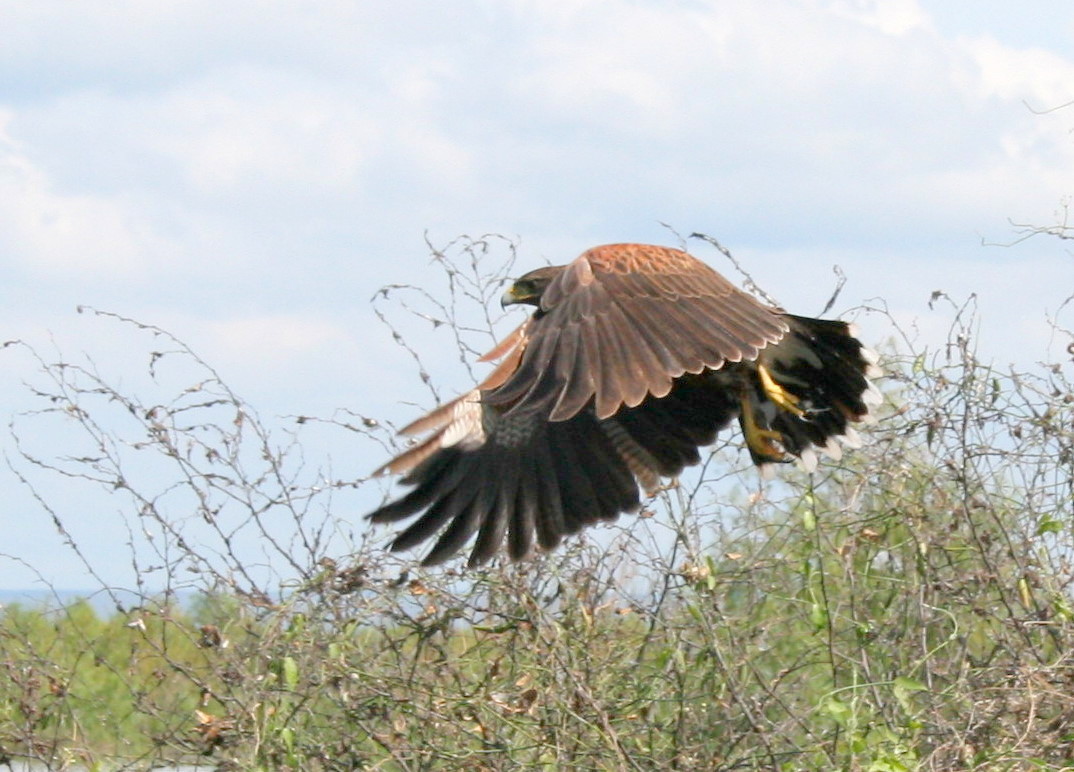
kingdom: Animalia
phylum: Chordata
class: Aves
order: Accipitriformes
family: Accipitridae
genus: Parabuteo
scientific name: Parabuteo unicinctus
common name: Harris's hawk
